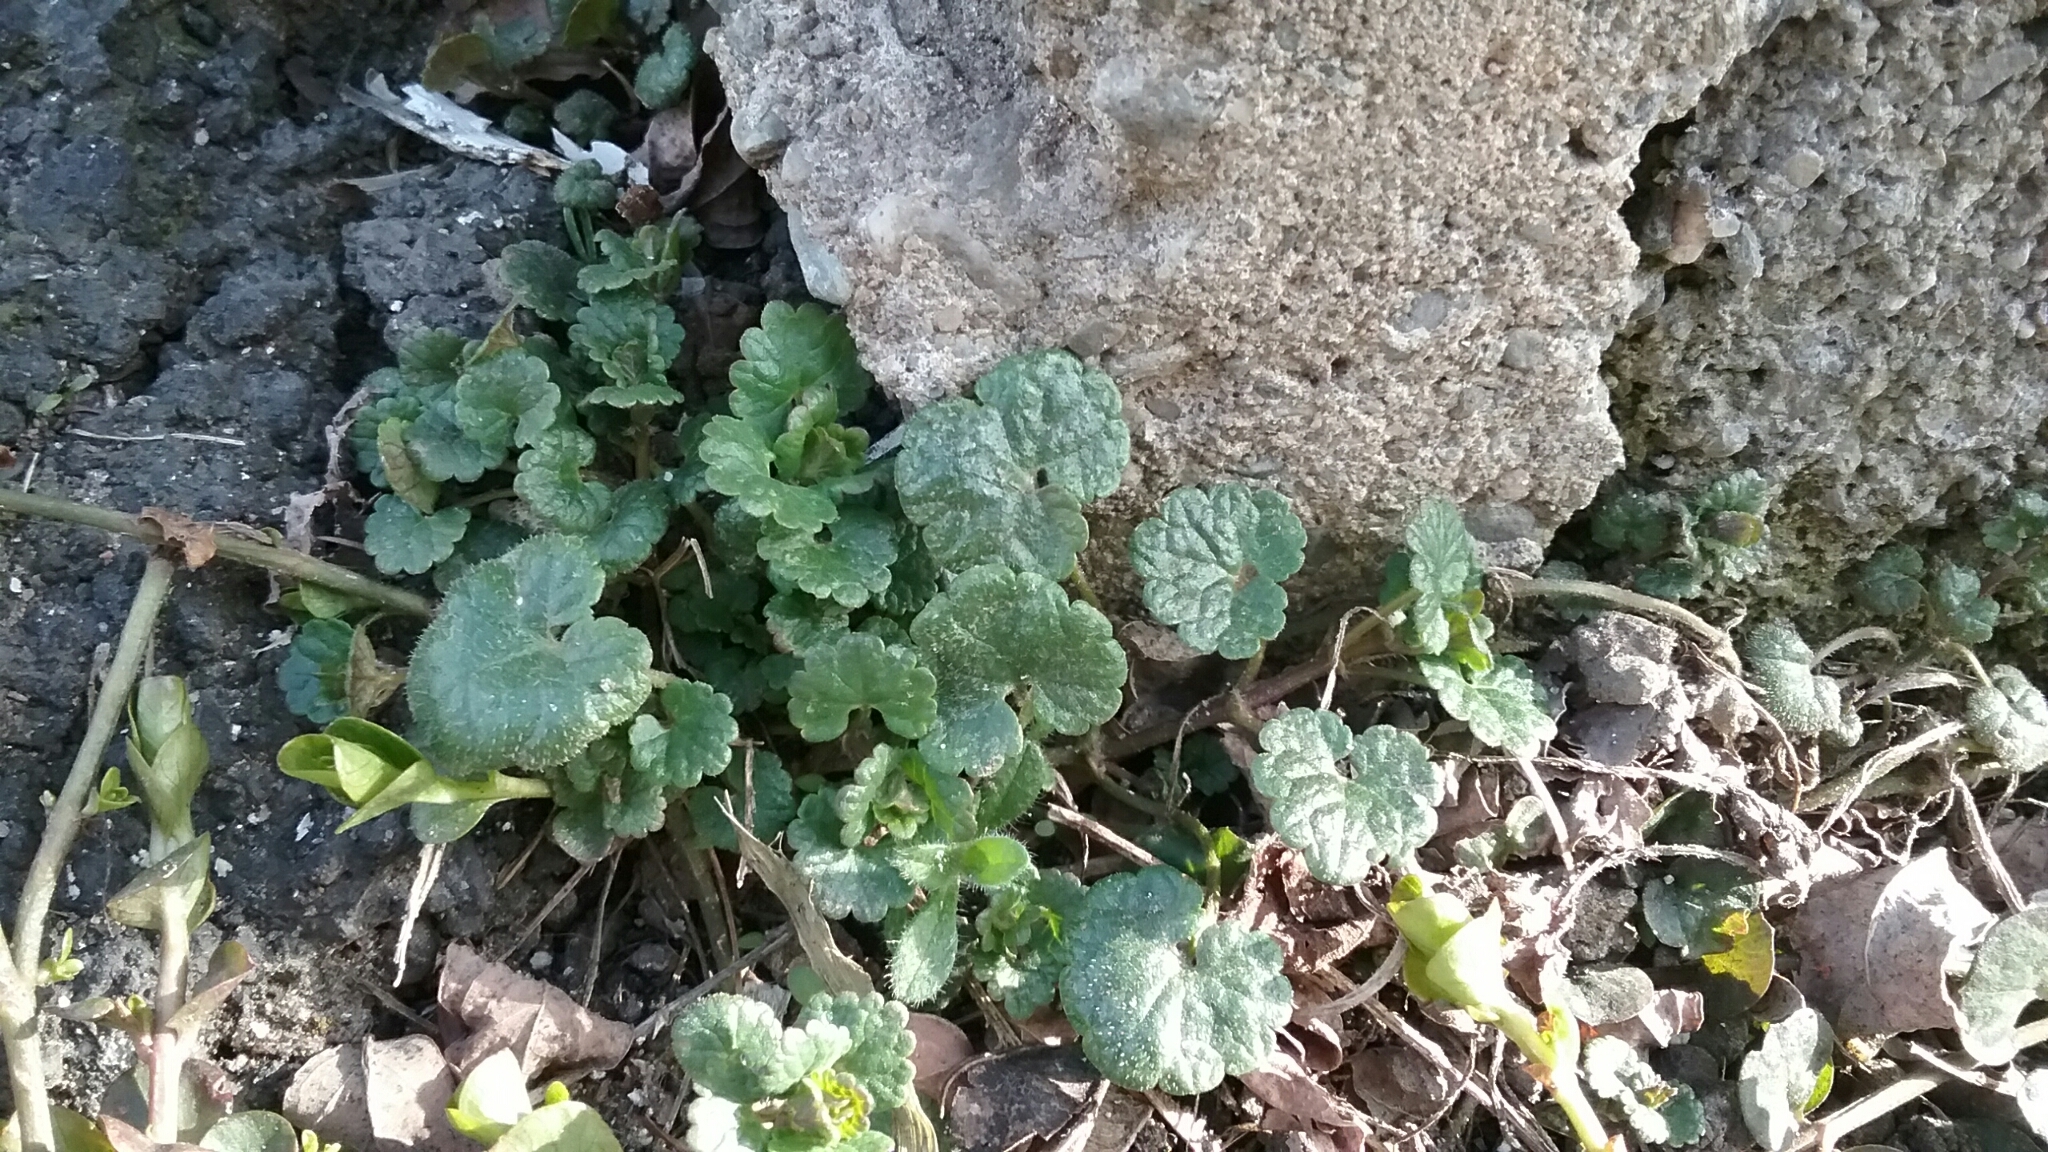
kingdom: Plantae
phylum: Tracheophyta
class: Magnoliopsida
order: Lamiales
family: Lamiaceae
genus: Glechoma
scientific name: Glechoma hederacea
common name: Ground ivy
